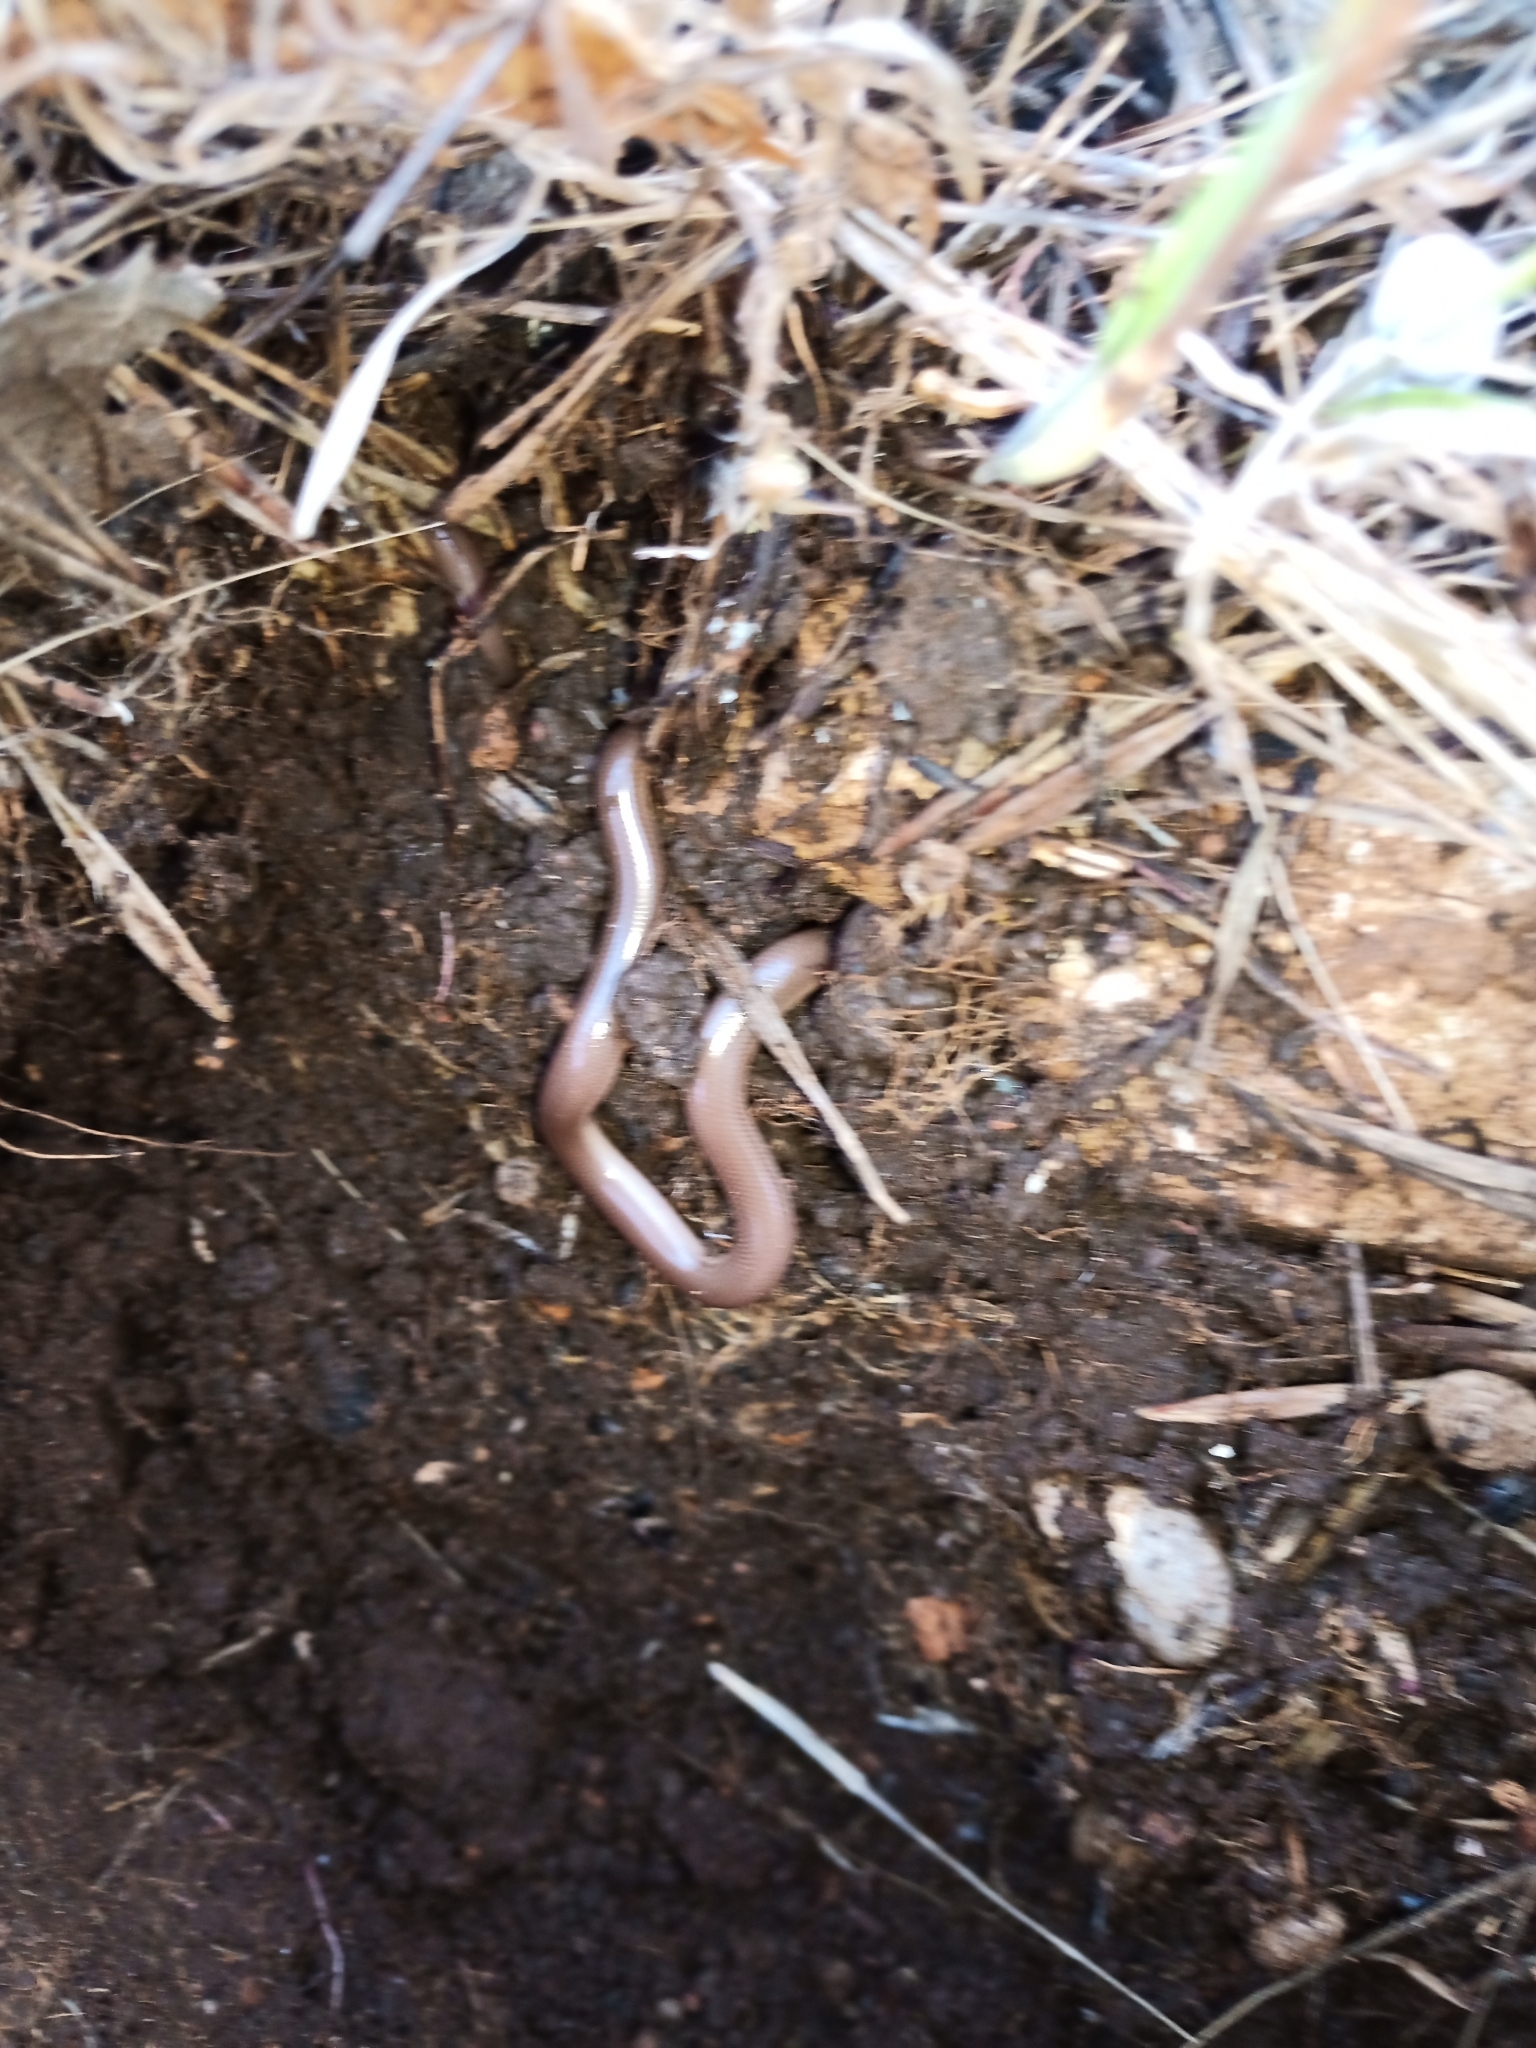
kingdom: Animalia
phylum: Chordata
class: Squamata
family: Typhlopidae
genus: Xerotyphlops
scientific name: Xerotyphlops vermicularis
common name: Eurasian blind snake
